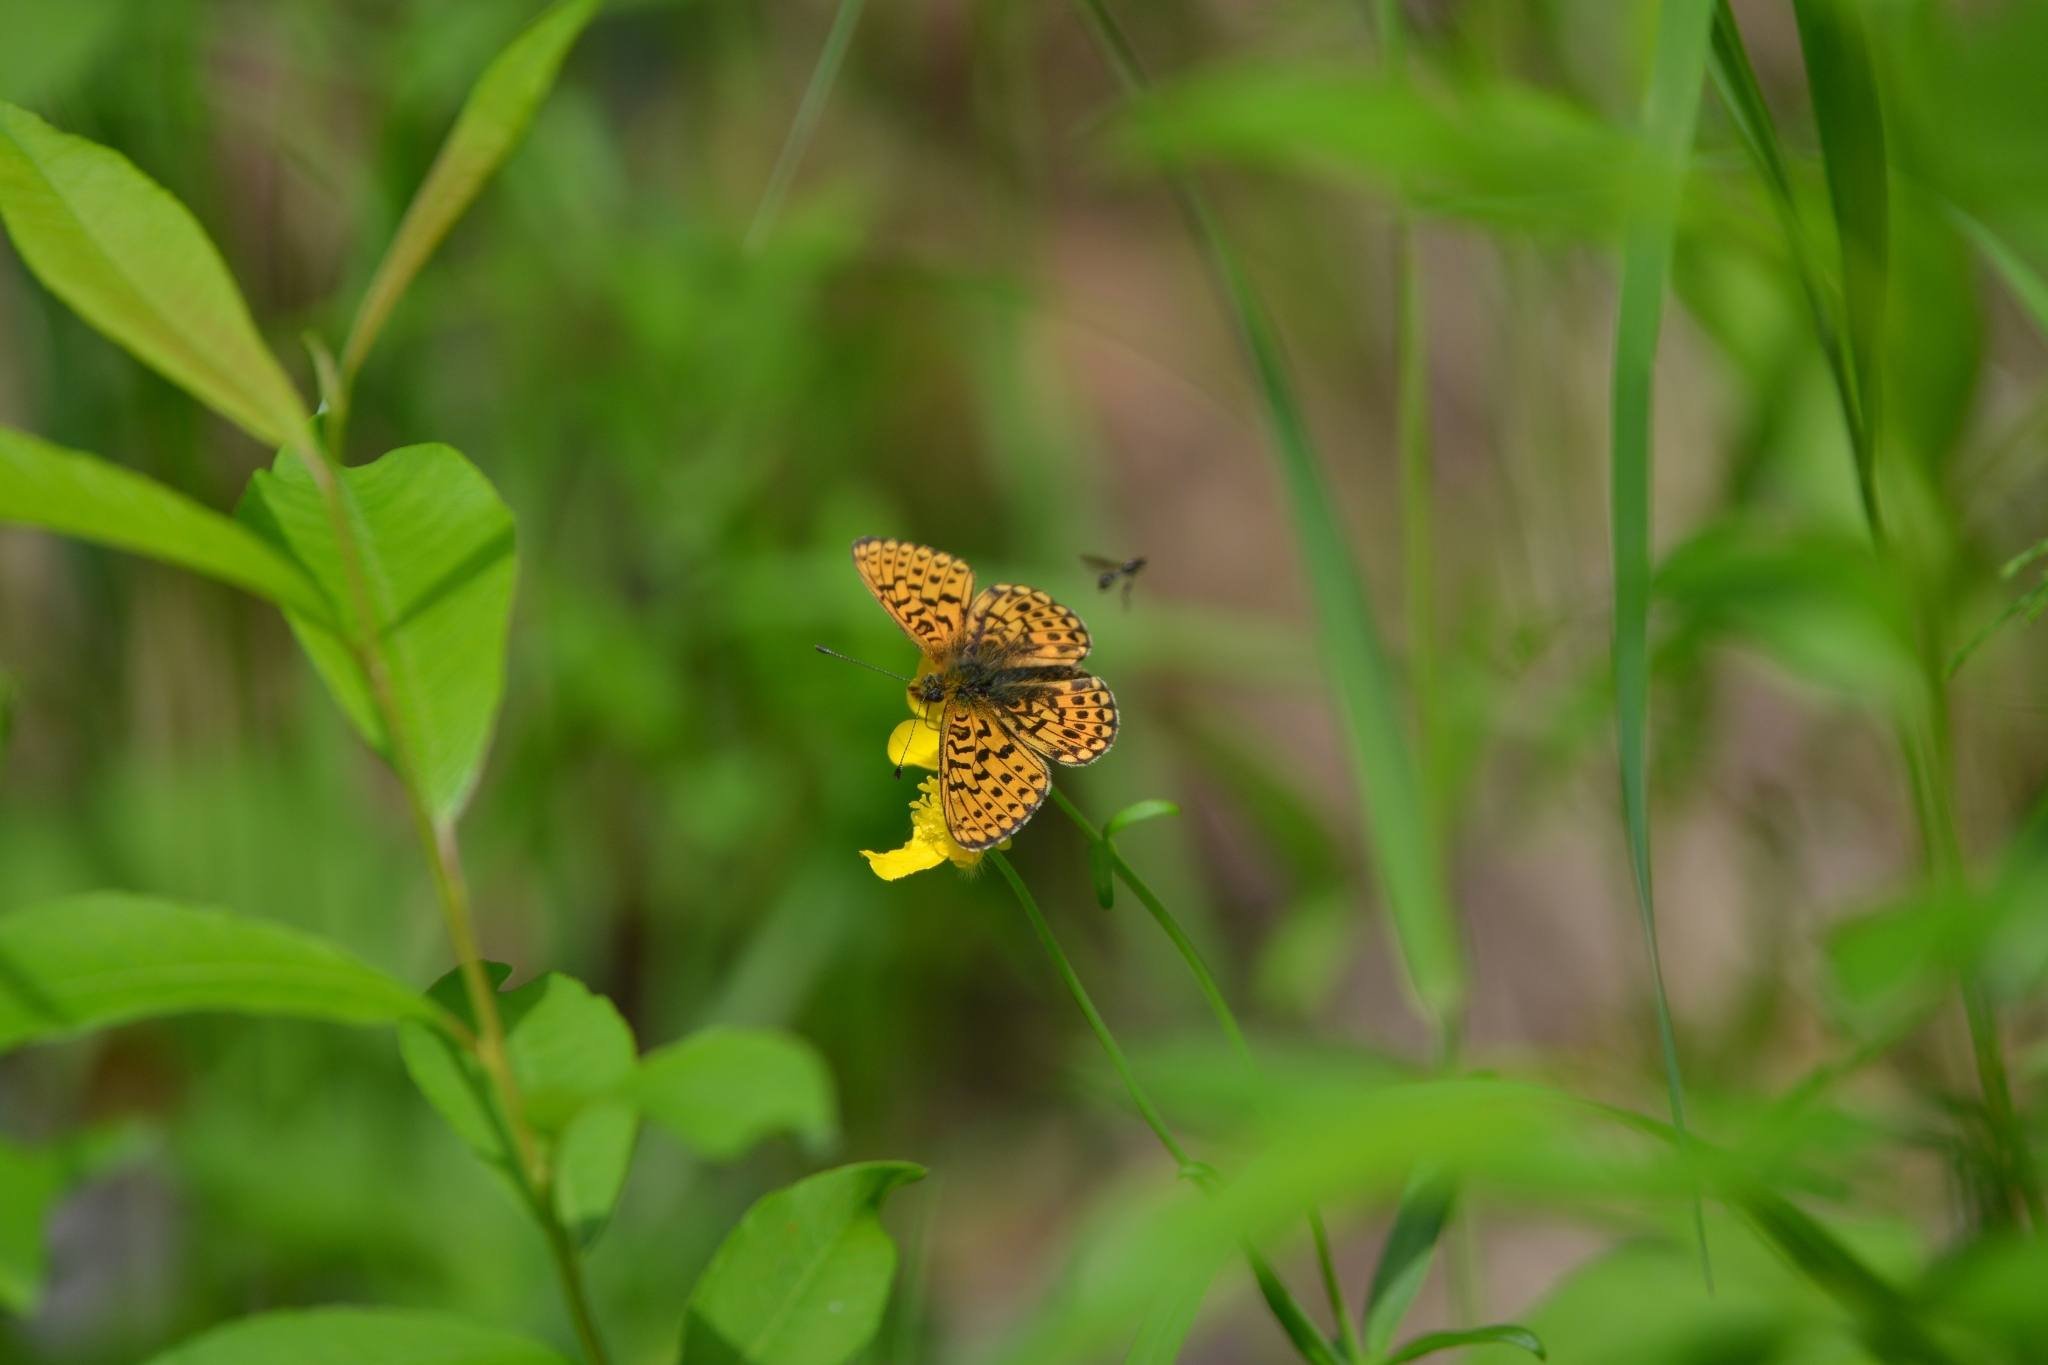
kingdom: Animalia
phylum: Arthropoda
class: Insecta
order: Lepidoptera
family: Nymphalidae
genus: Clossiana
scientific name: Clossiana euphrosyne
